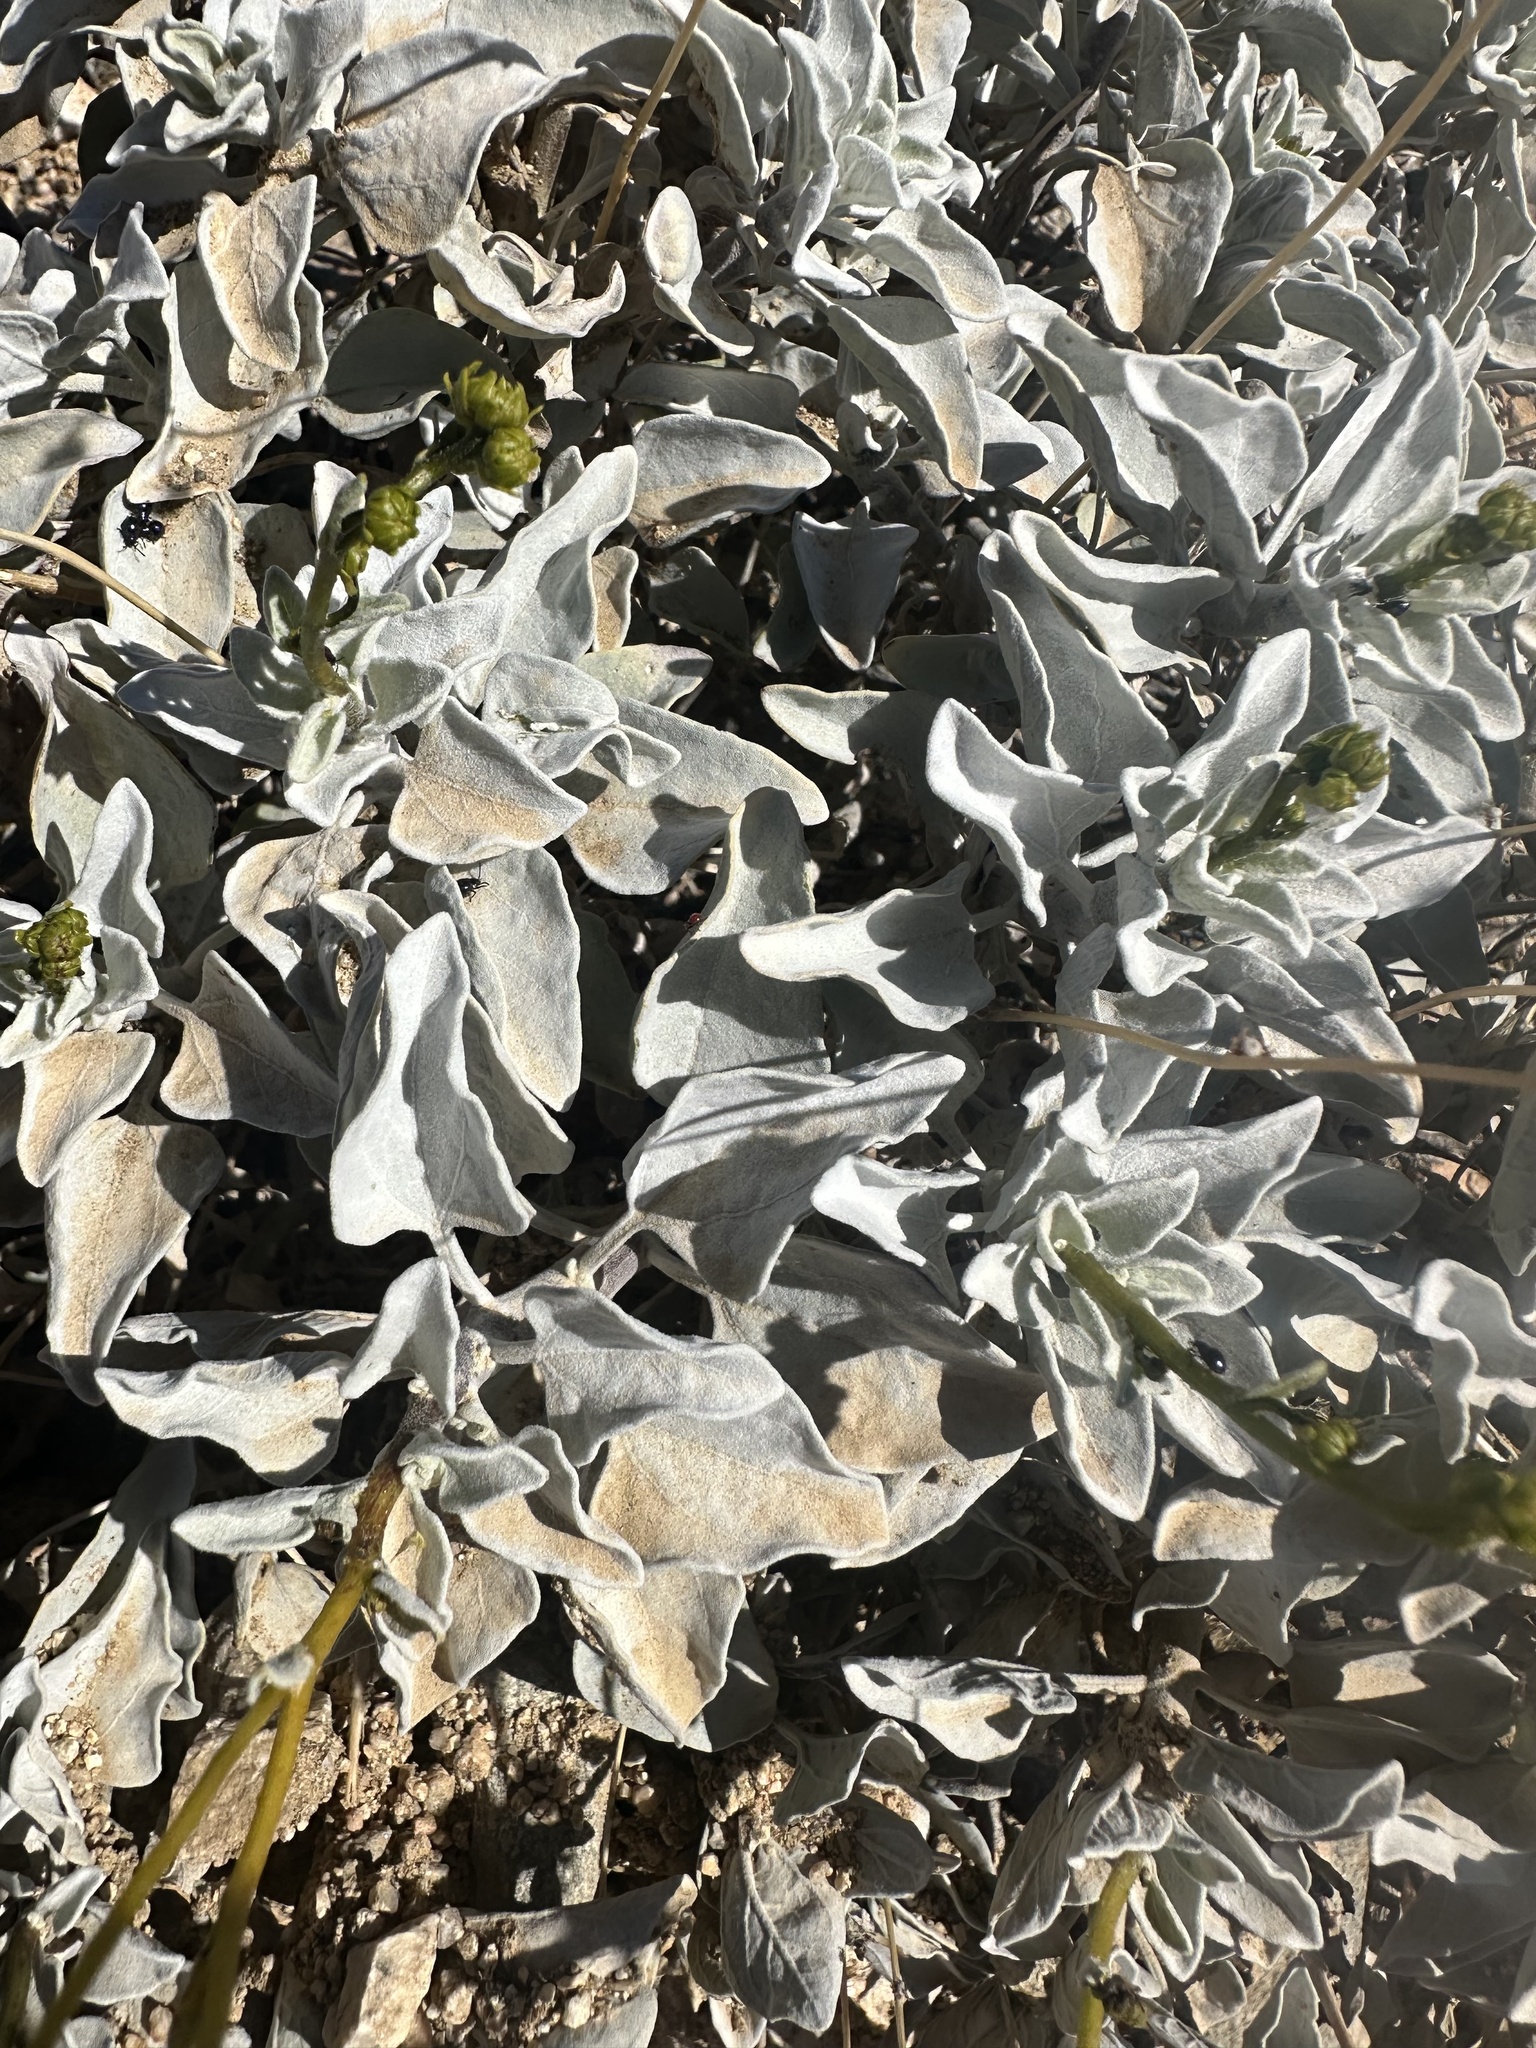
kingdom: Plantae
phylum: Tracheophyta
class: Magnoliopsida
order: Asterales
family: Asteraceae
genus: Encelia
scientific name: Encelia farinosa
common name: Brittlebush
